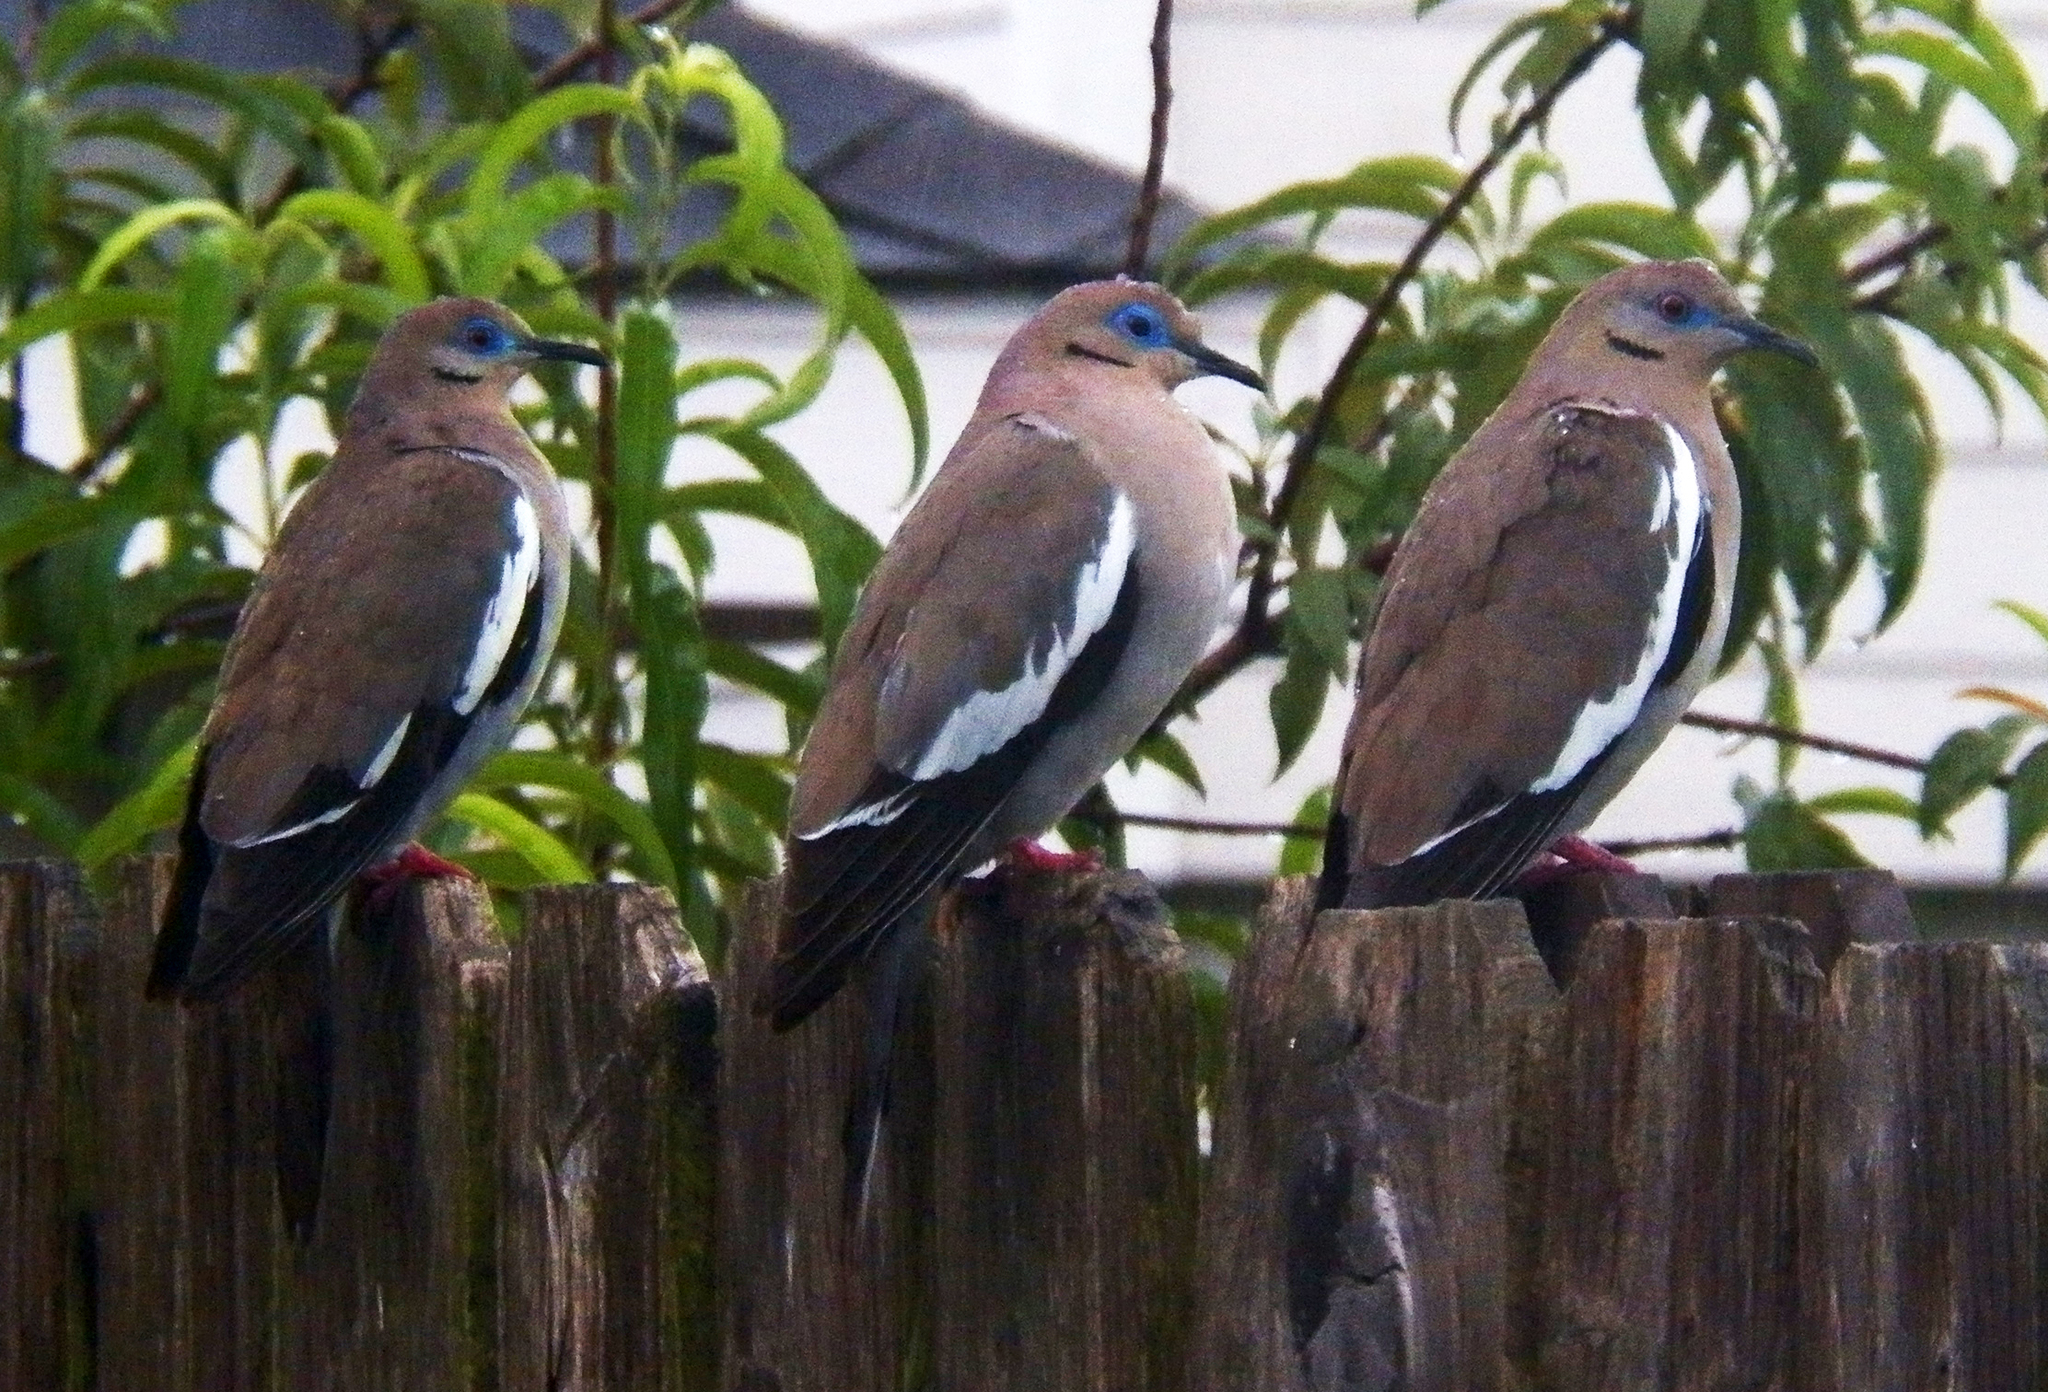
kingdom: Animalia
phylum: Chordata
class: Aves
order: Columbiformes
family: Columbidae
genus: Zenaida
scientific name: Zenaida asiatica
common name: White-winged dove
